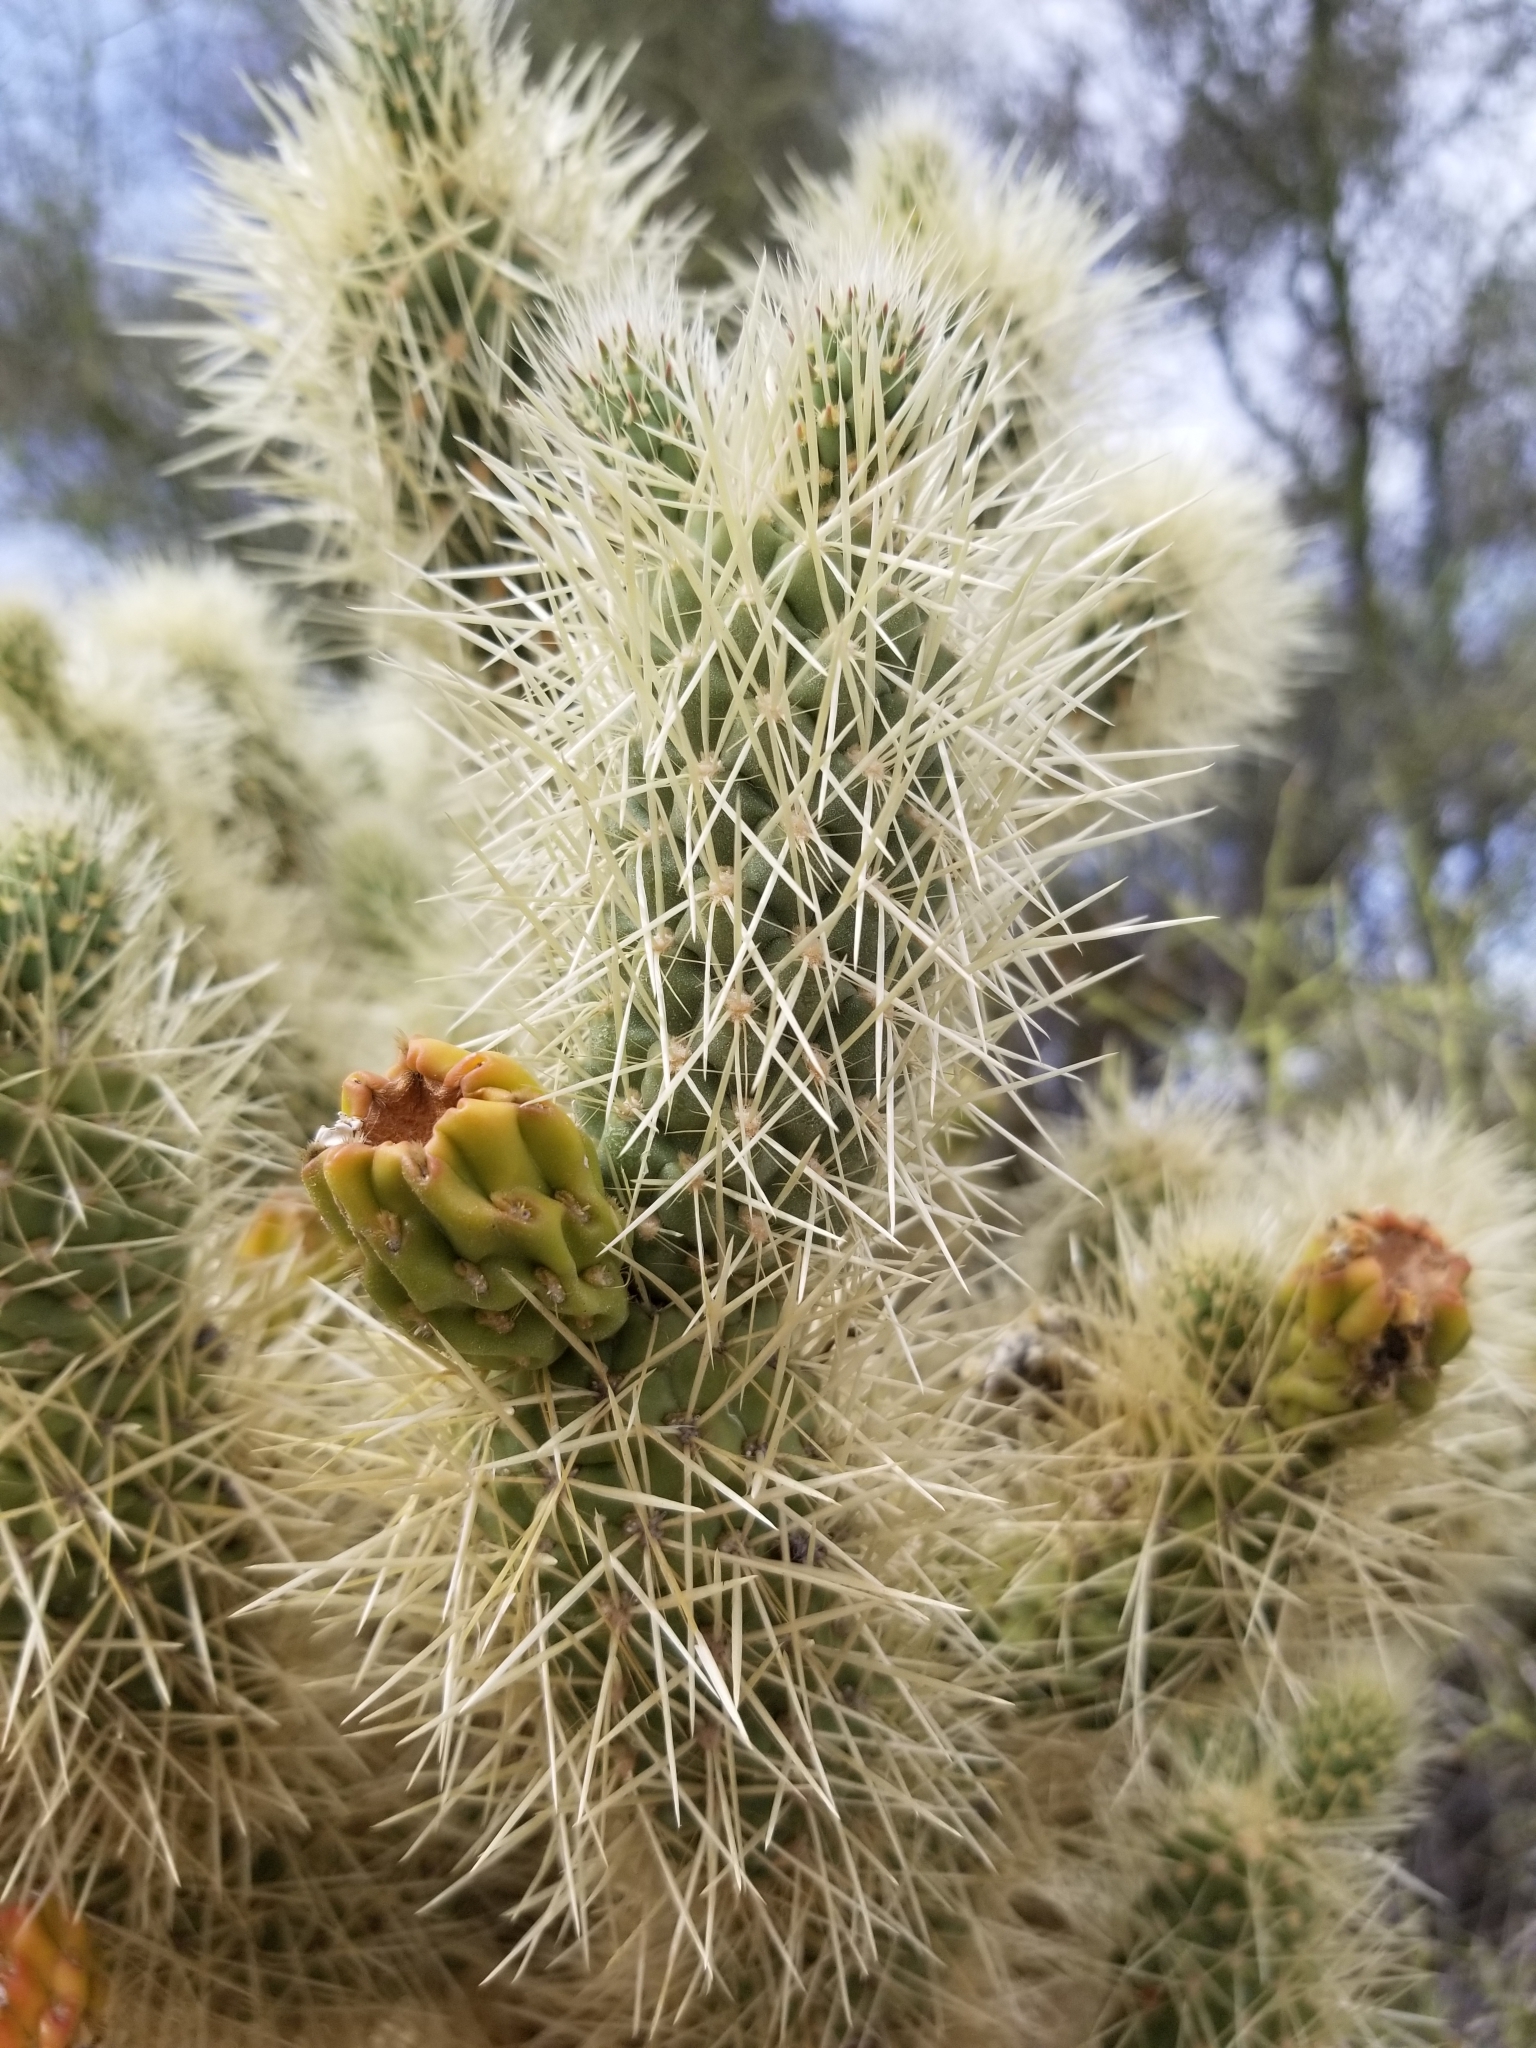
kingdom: Plantae
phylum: Tracheophyta
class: Magnoliopsida
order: Caryophyllales
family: Cactaceae
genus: Cylindropuntia
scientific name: Cylindropuntia fosbergii
